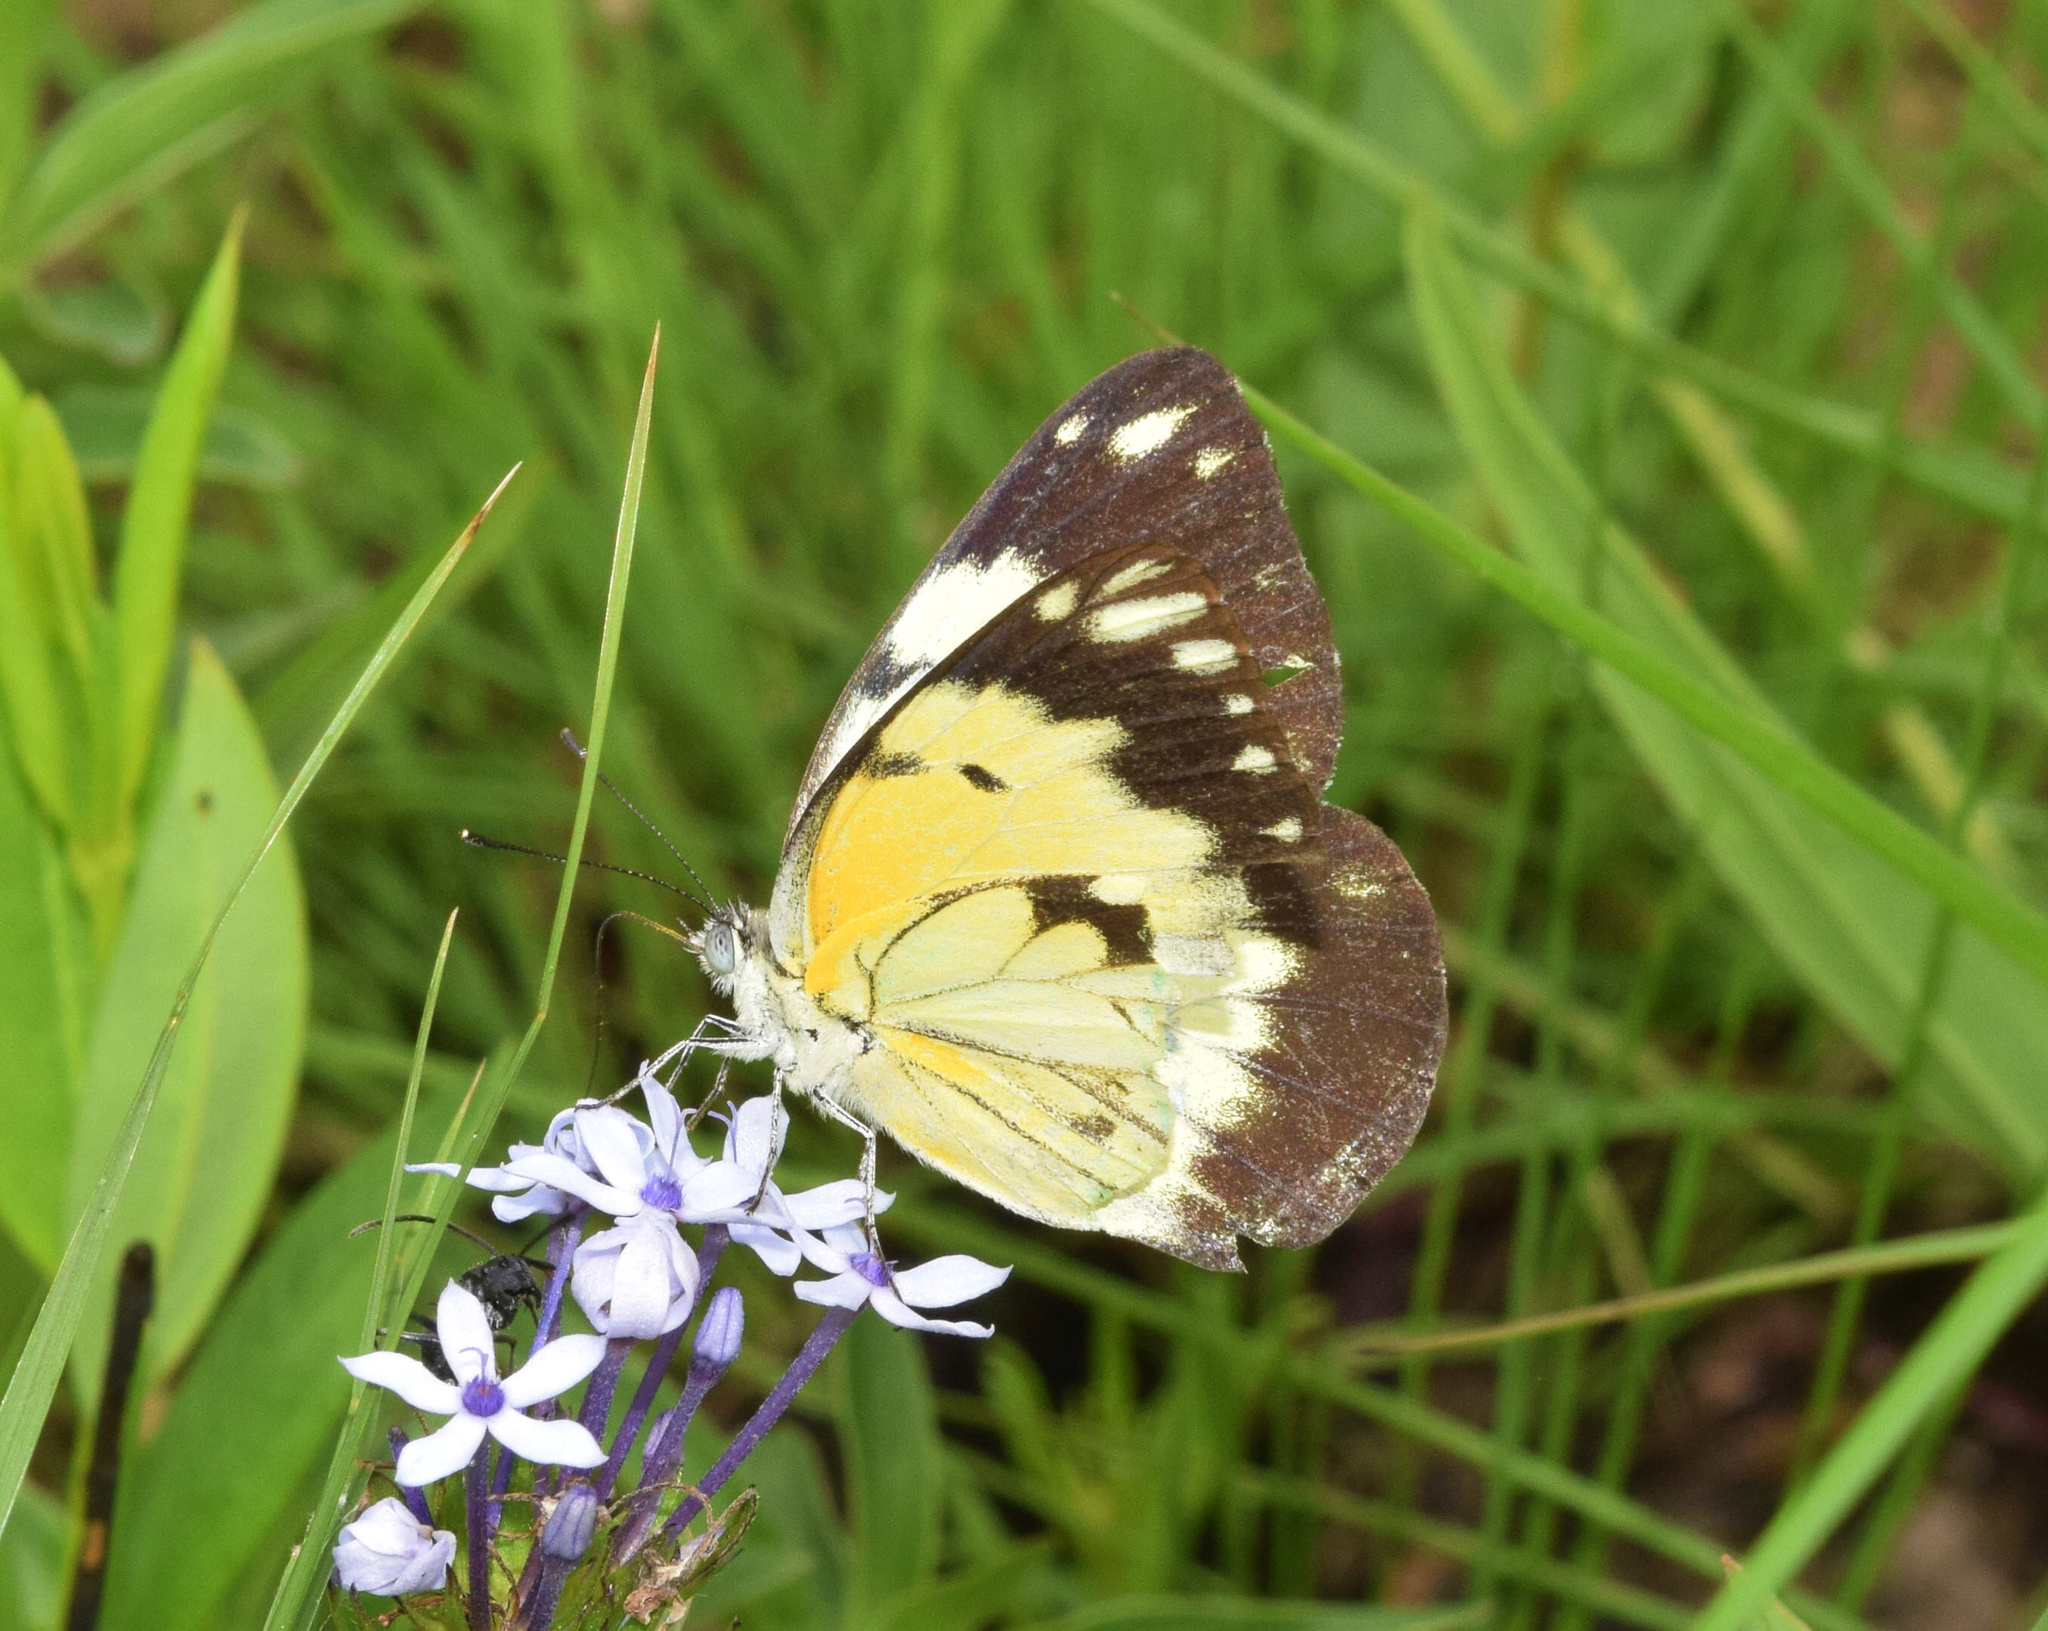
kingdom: Animalia
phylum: Arthropoda
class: Insecta
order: Lepidoptera
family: Pieridae
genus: Belenois
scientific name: Belenois creona
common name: African caper white
